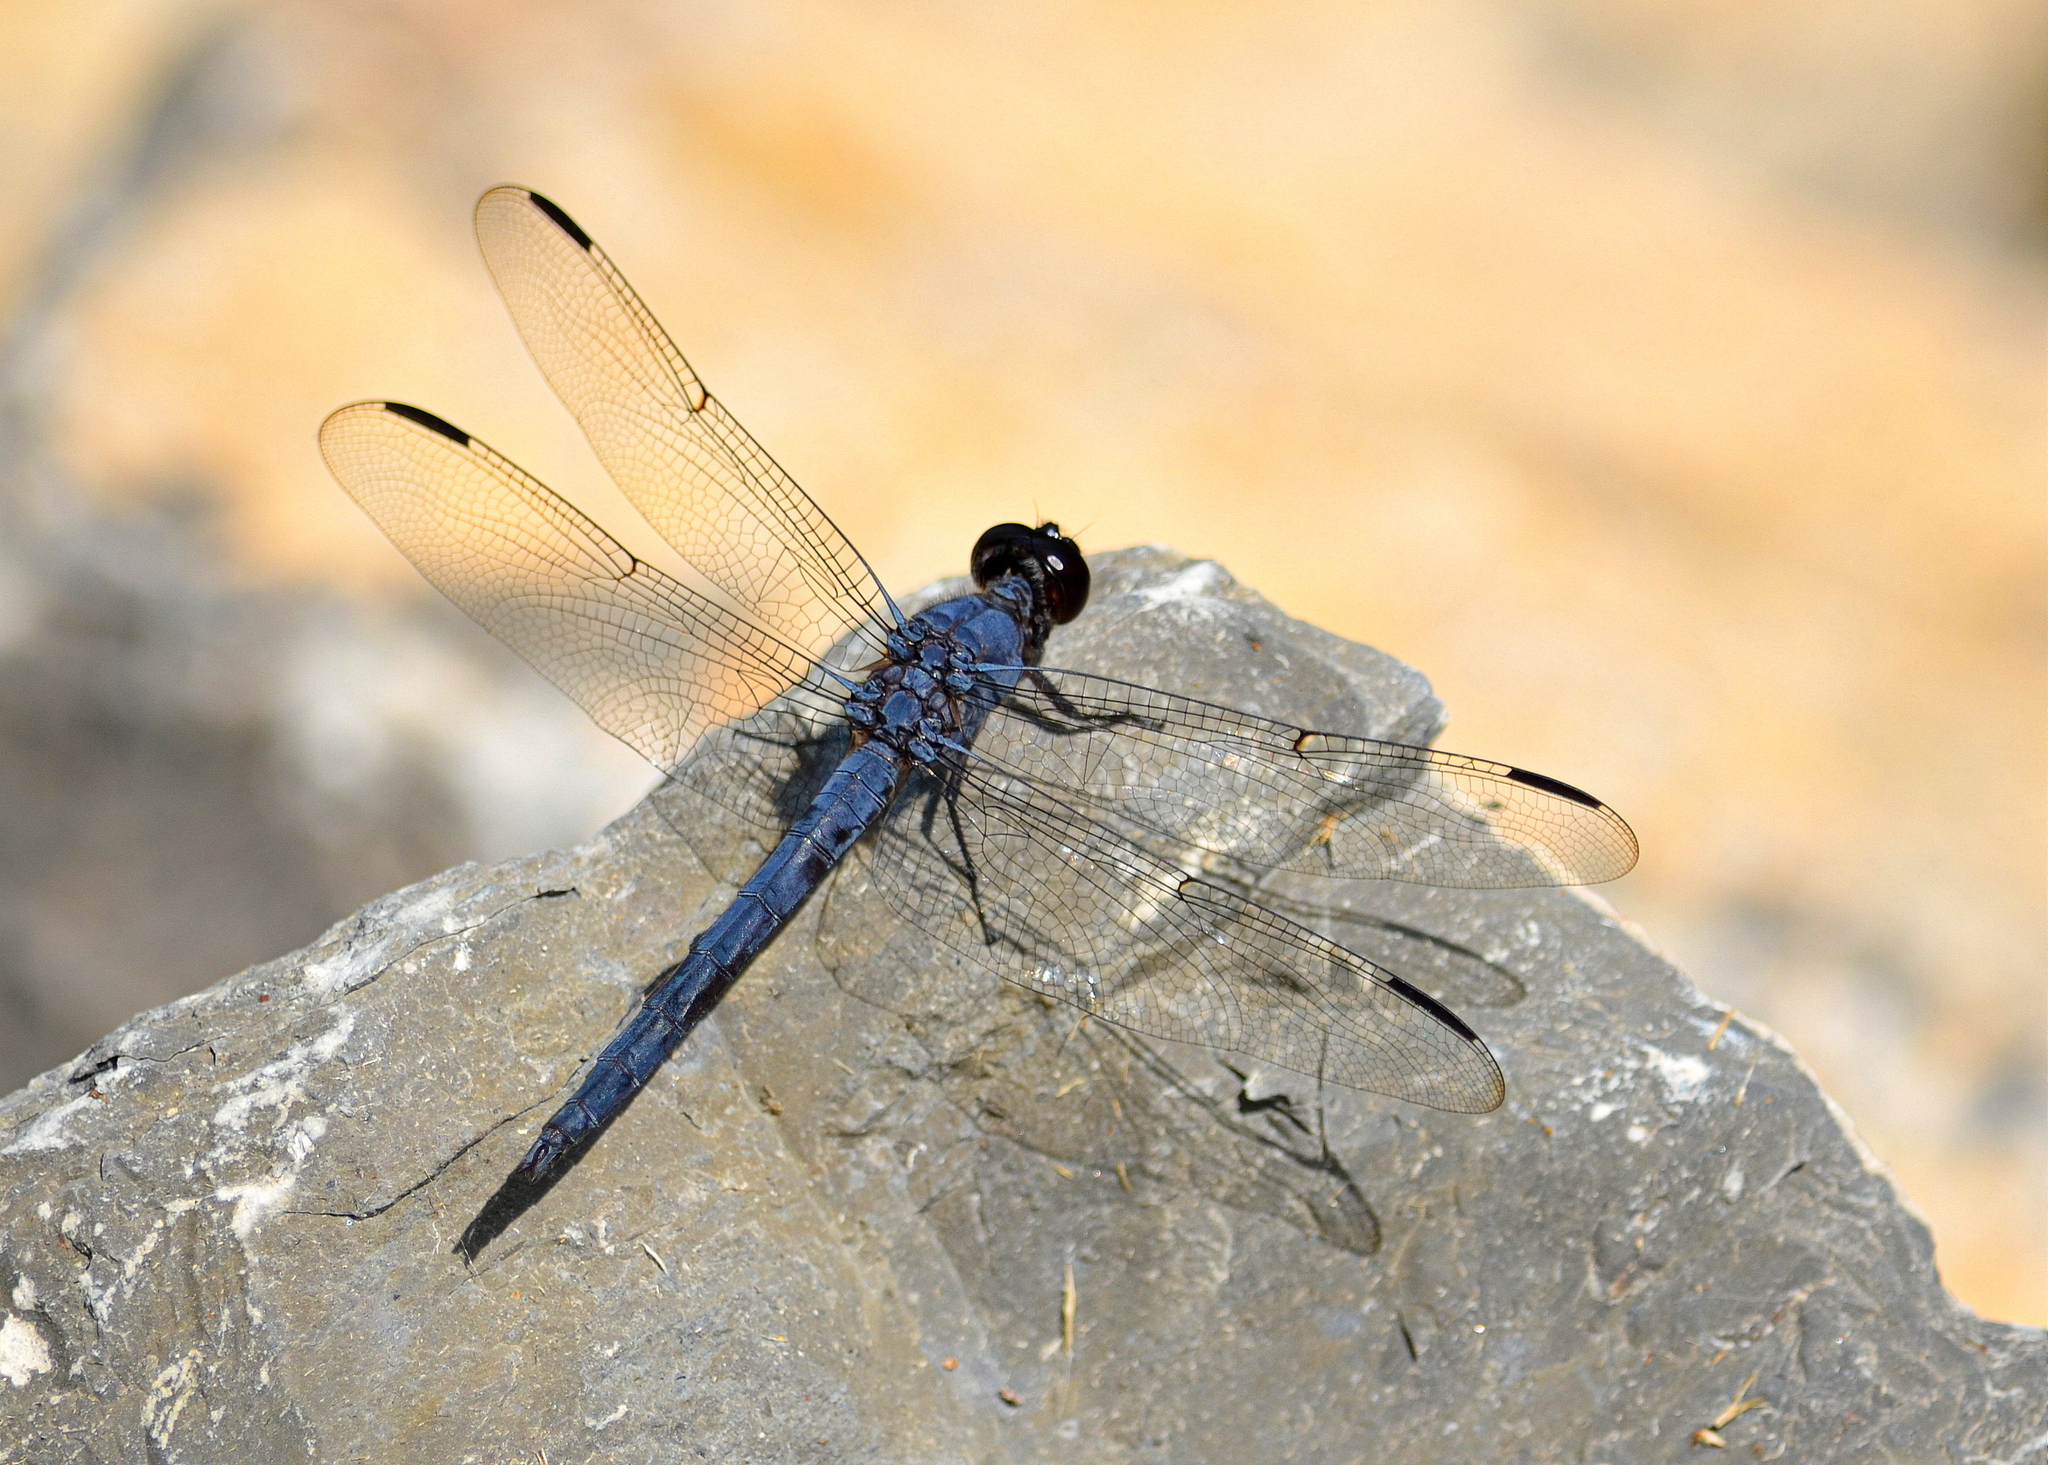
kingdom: Animalia
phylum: Arthropoda
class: Insecta
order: Odonata
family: Libellulidae
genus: Libellula
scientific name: Libellula incesta
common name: Slaty skimmer
